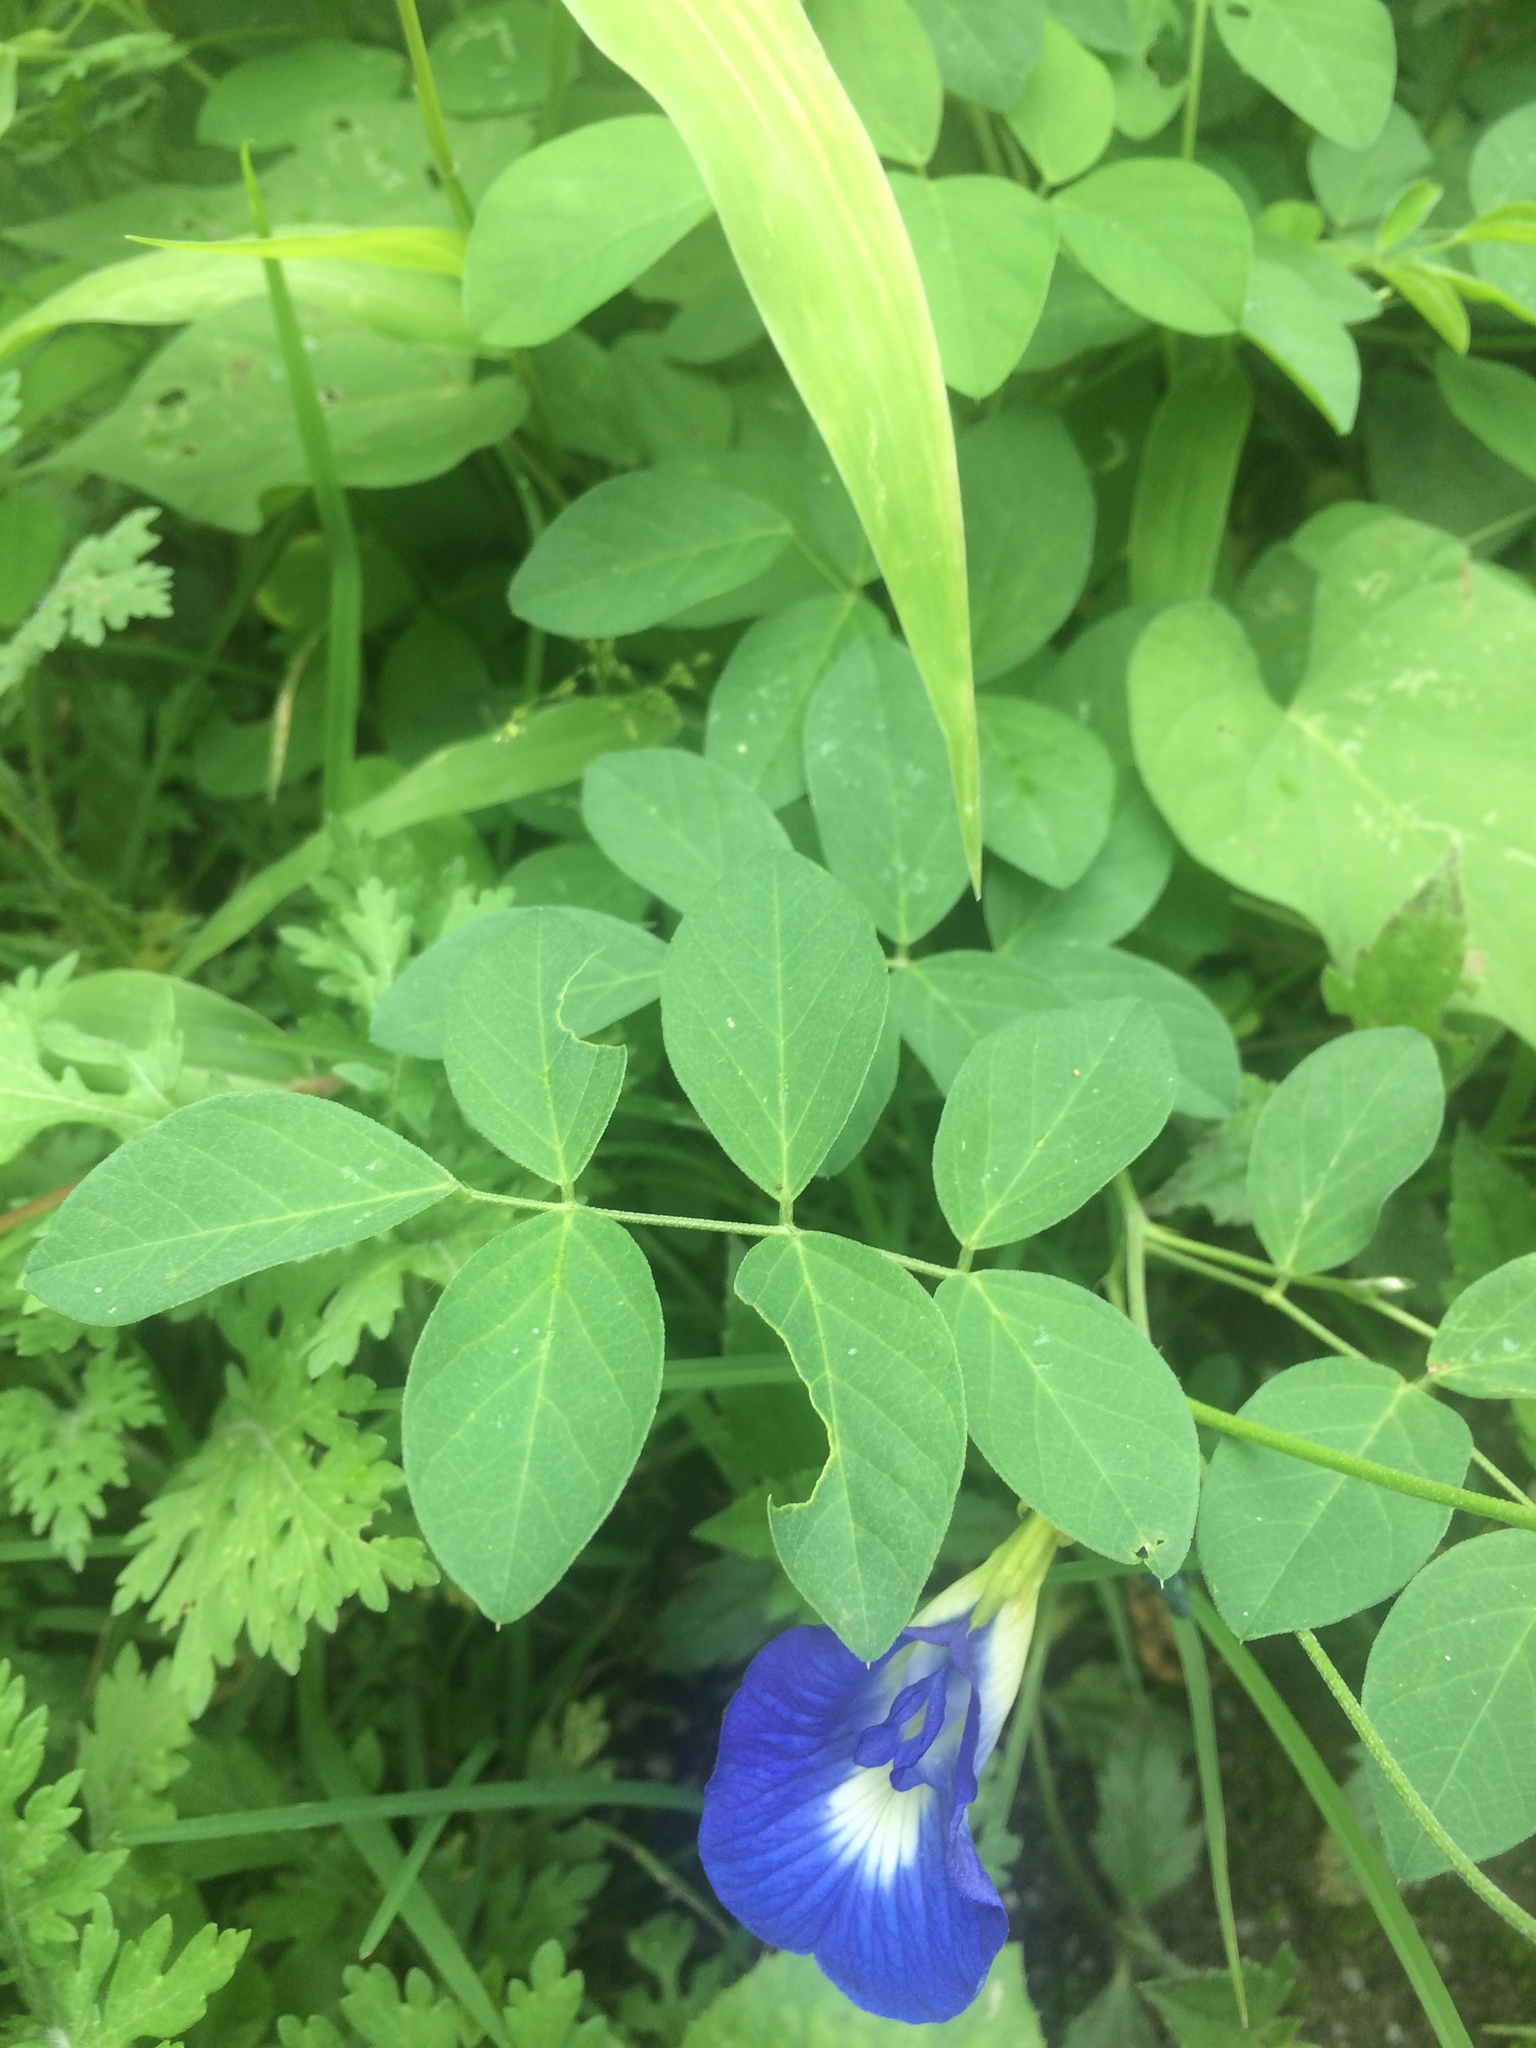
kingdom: Plantae
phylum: Tracheophyta
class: Magnoliopsida
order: Fabales
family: Fabaceae
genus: Clitoria
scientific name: Clitoria ternatea
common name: Asian pigeonwings
